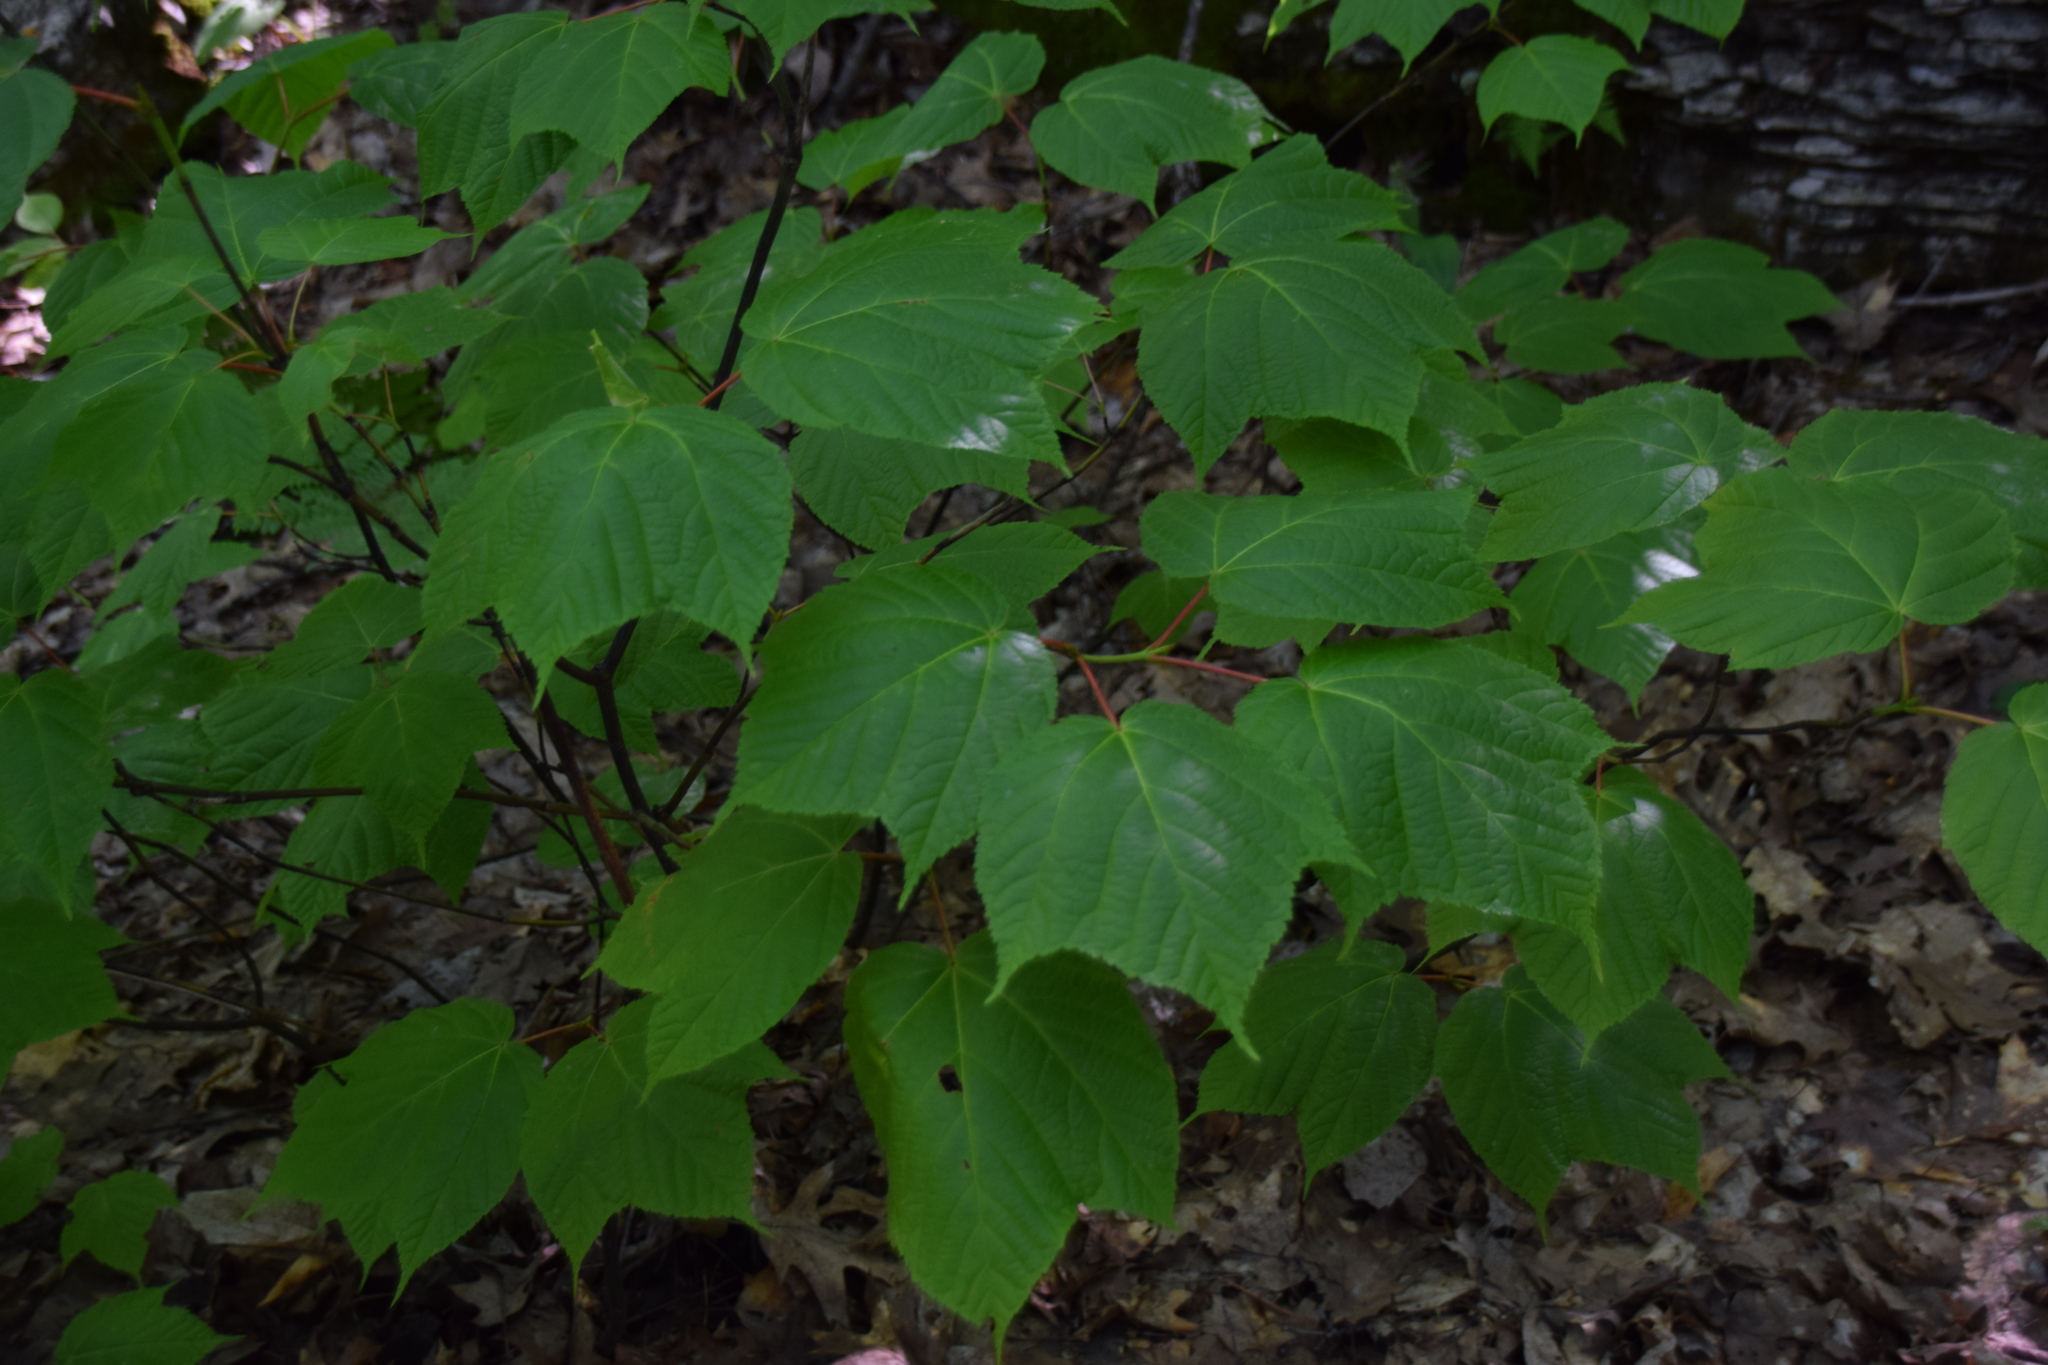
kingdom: Plantae
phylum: Tracheophyta
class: Magnoliopsida
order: Sapindales
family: Sapindaceae
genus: Acer
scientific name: Acer pensylvanicum
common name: Moosewood
